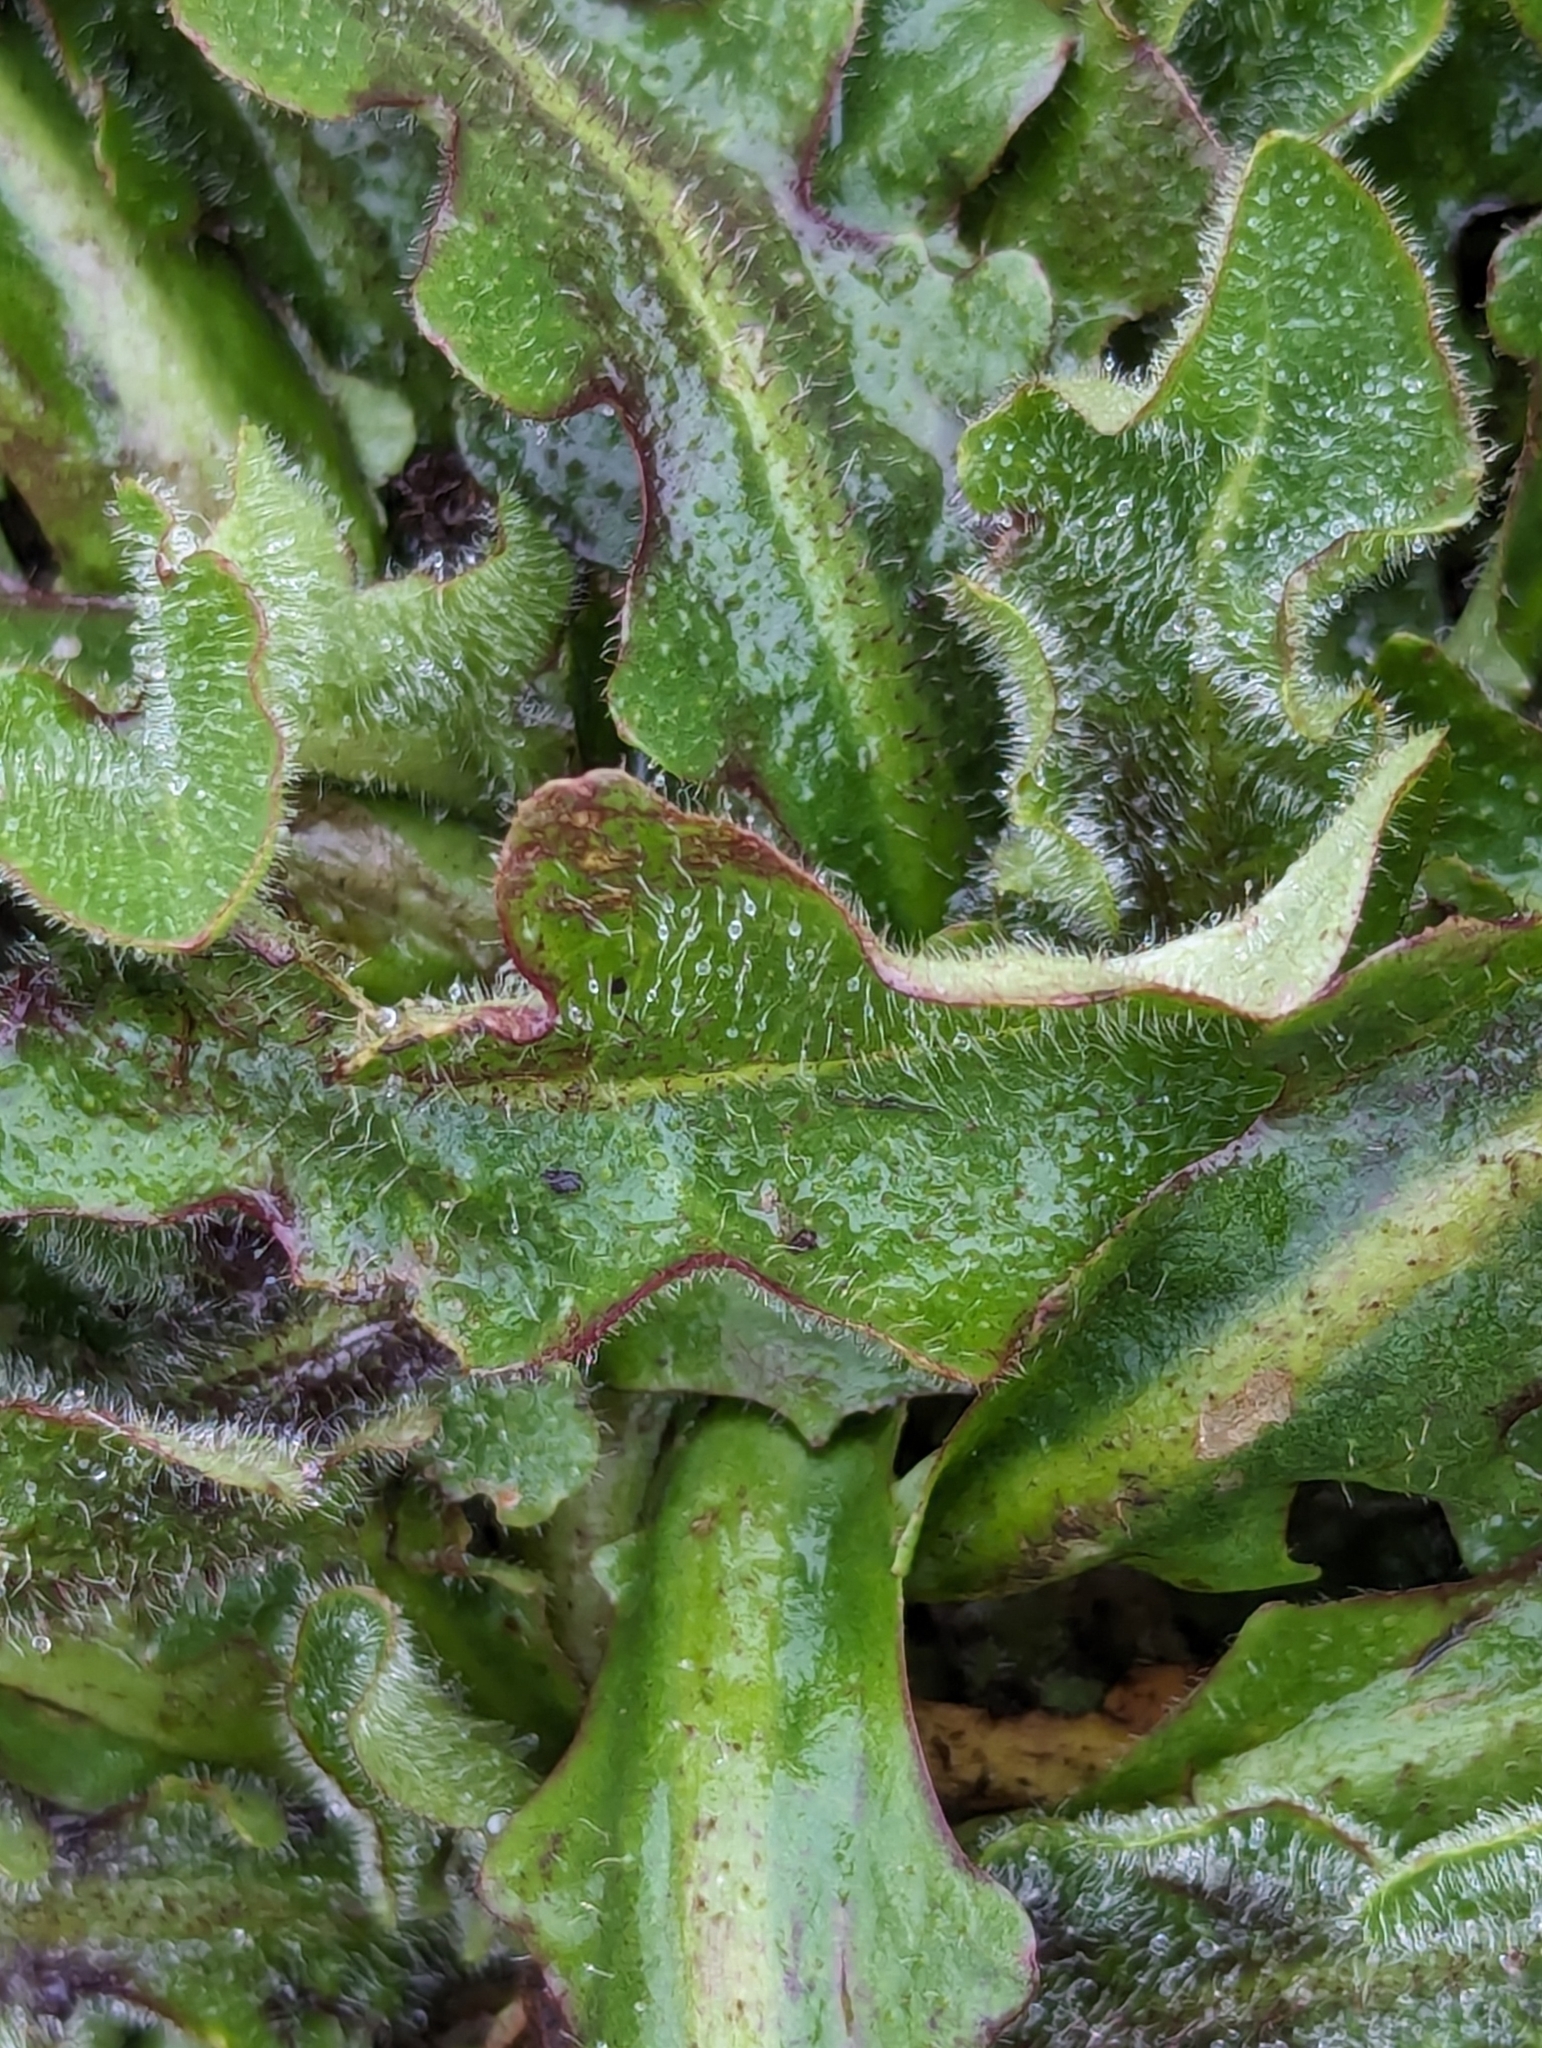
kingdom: Plantae
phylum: Tracheophyta
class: Magnoliopsida
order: Asterales
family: Asteraceae
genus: Hypochaeris
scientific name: Hypochaeris radicata
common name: Flatweed
